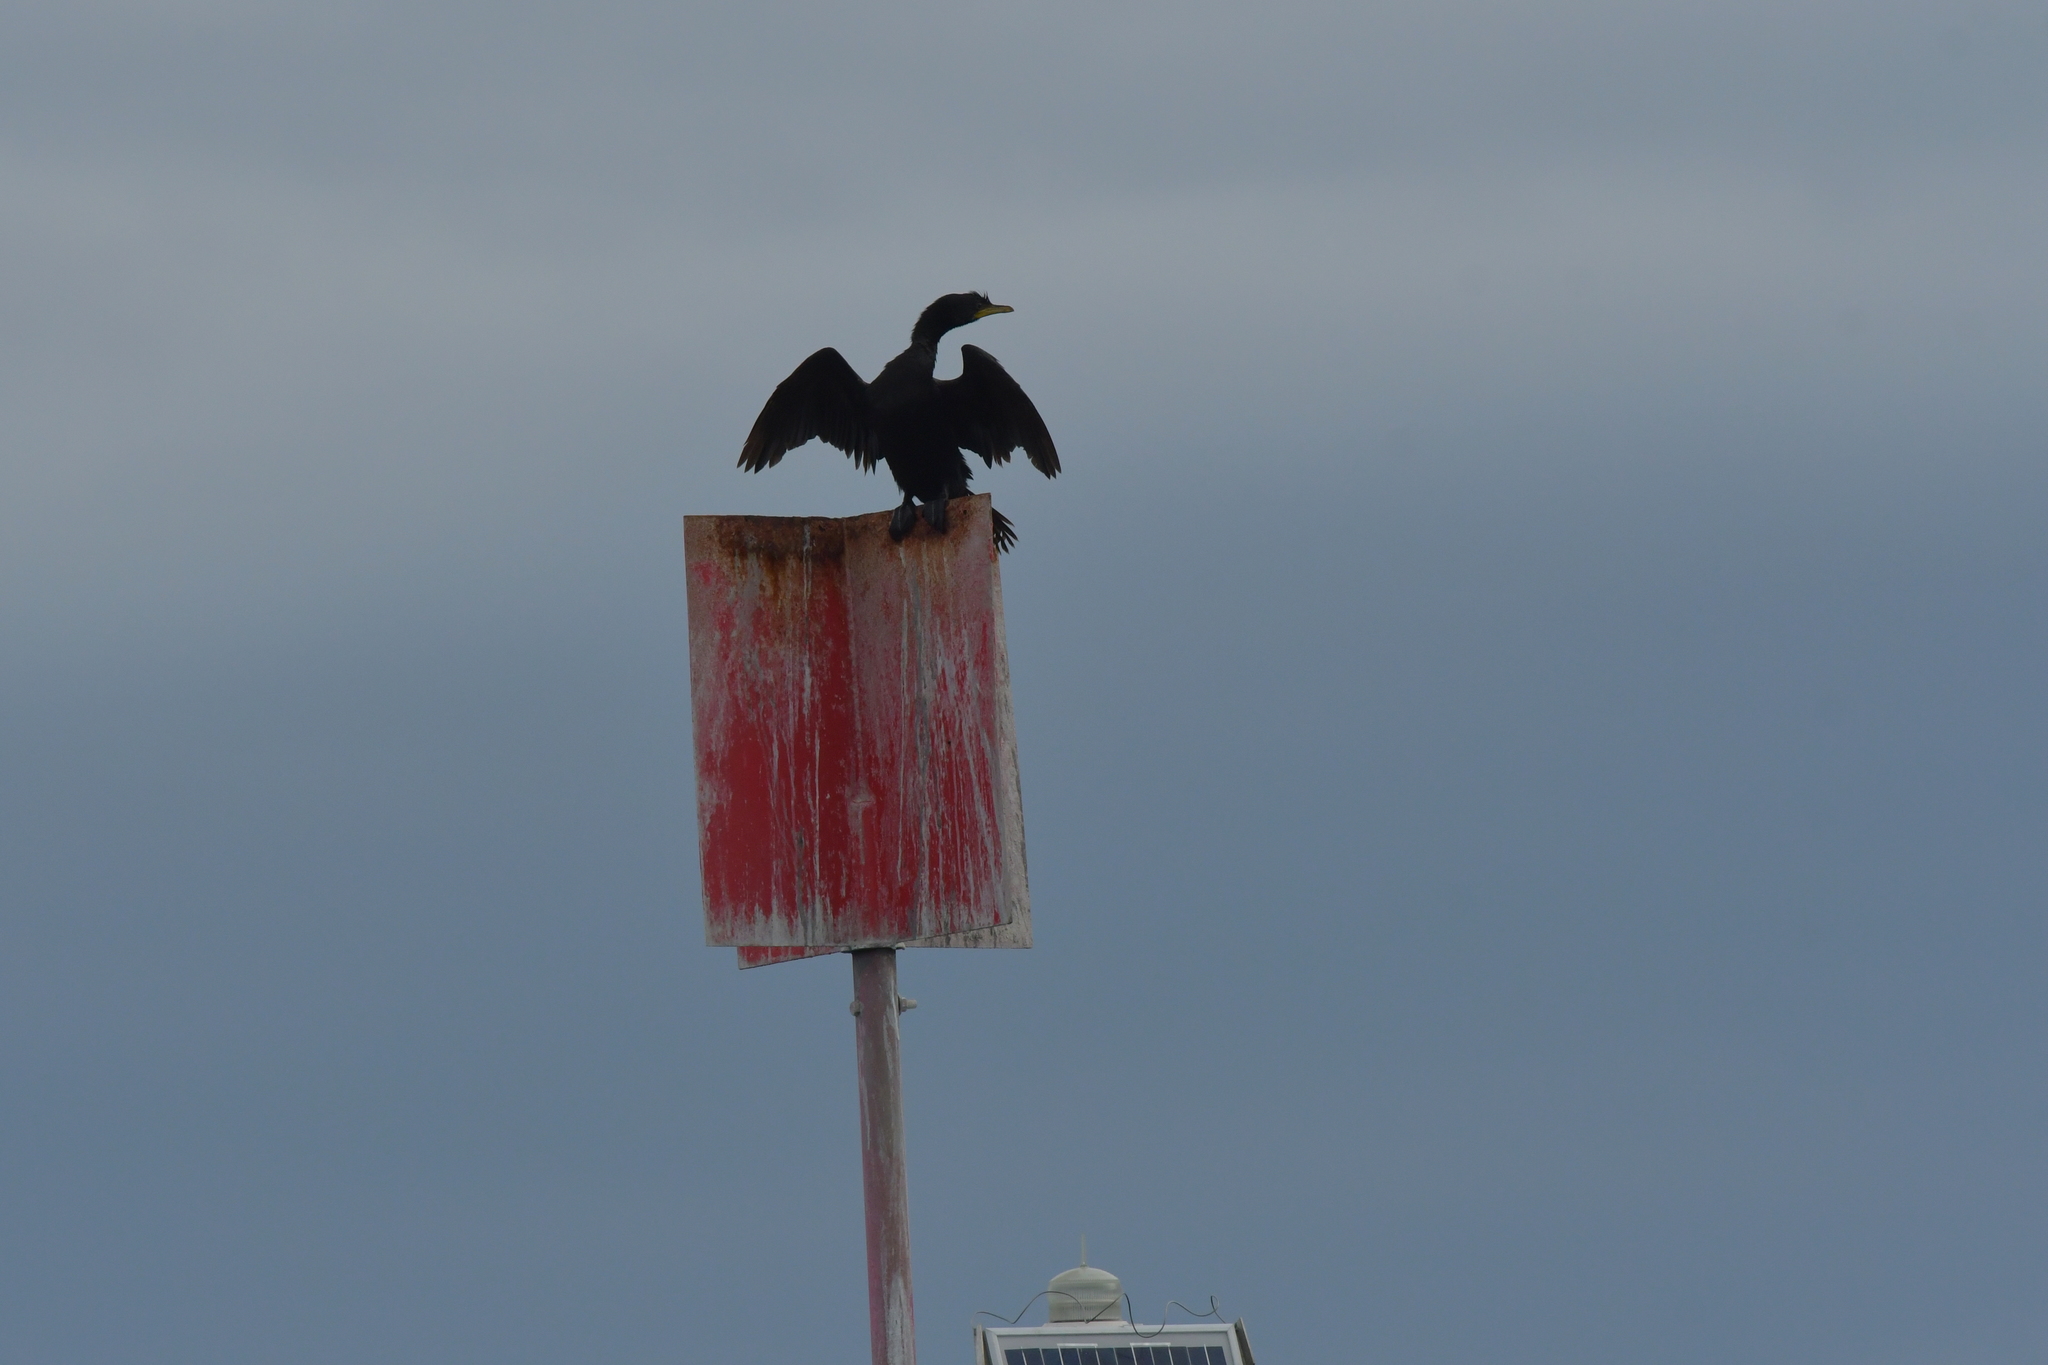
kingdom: Animalia
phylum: Chordata
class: Aves
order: Suliformes
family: Phalacrocoracidae
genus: Microcarbo
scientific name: Microcarbo melanoleucos
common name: Little pied cormorant
